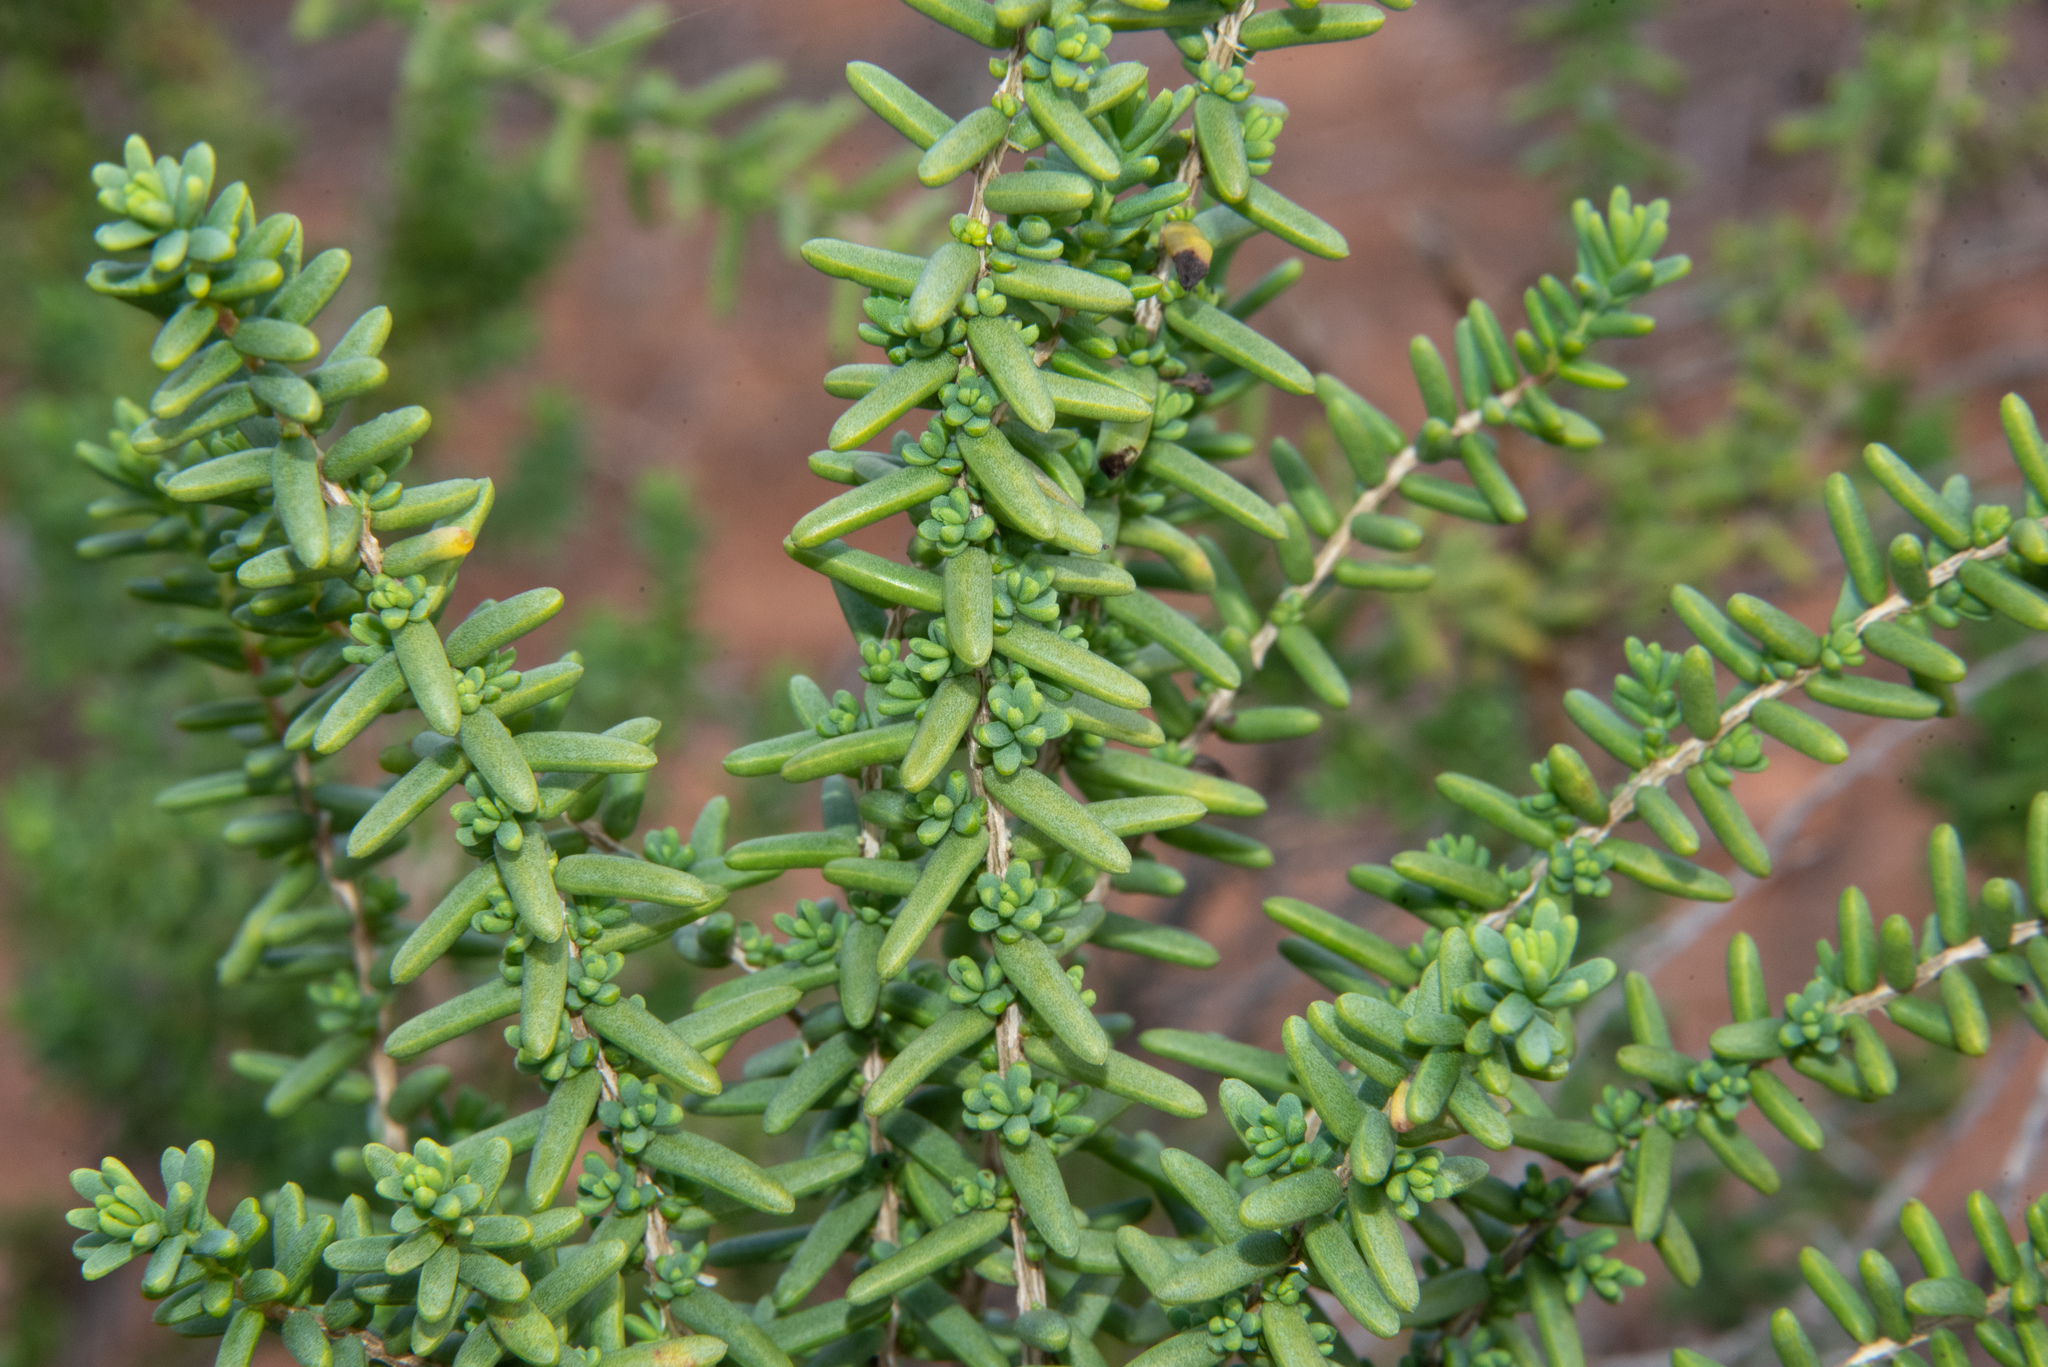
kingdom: Plantae
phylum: Tracheophyta
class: Magnoliopsida
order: Caryophyllales
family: Amaranthaceae
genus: Suaeda
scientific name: Suaeda vera
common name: Shrubby sea-blite
